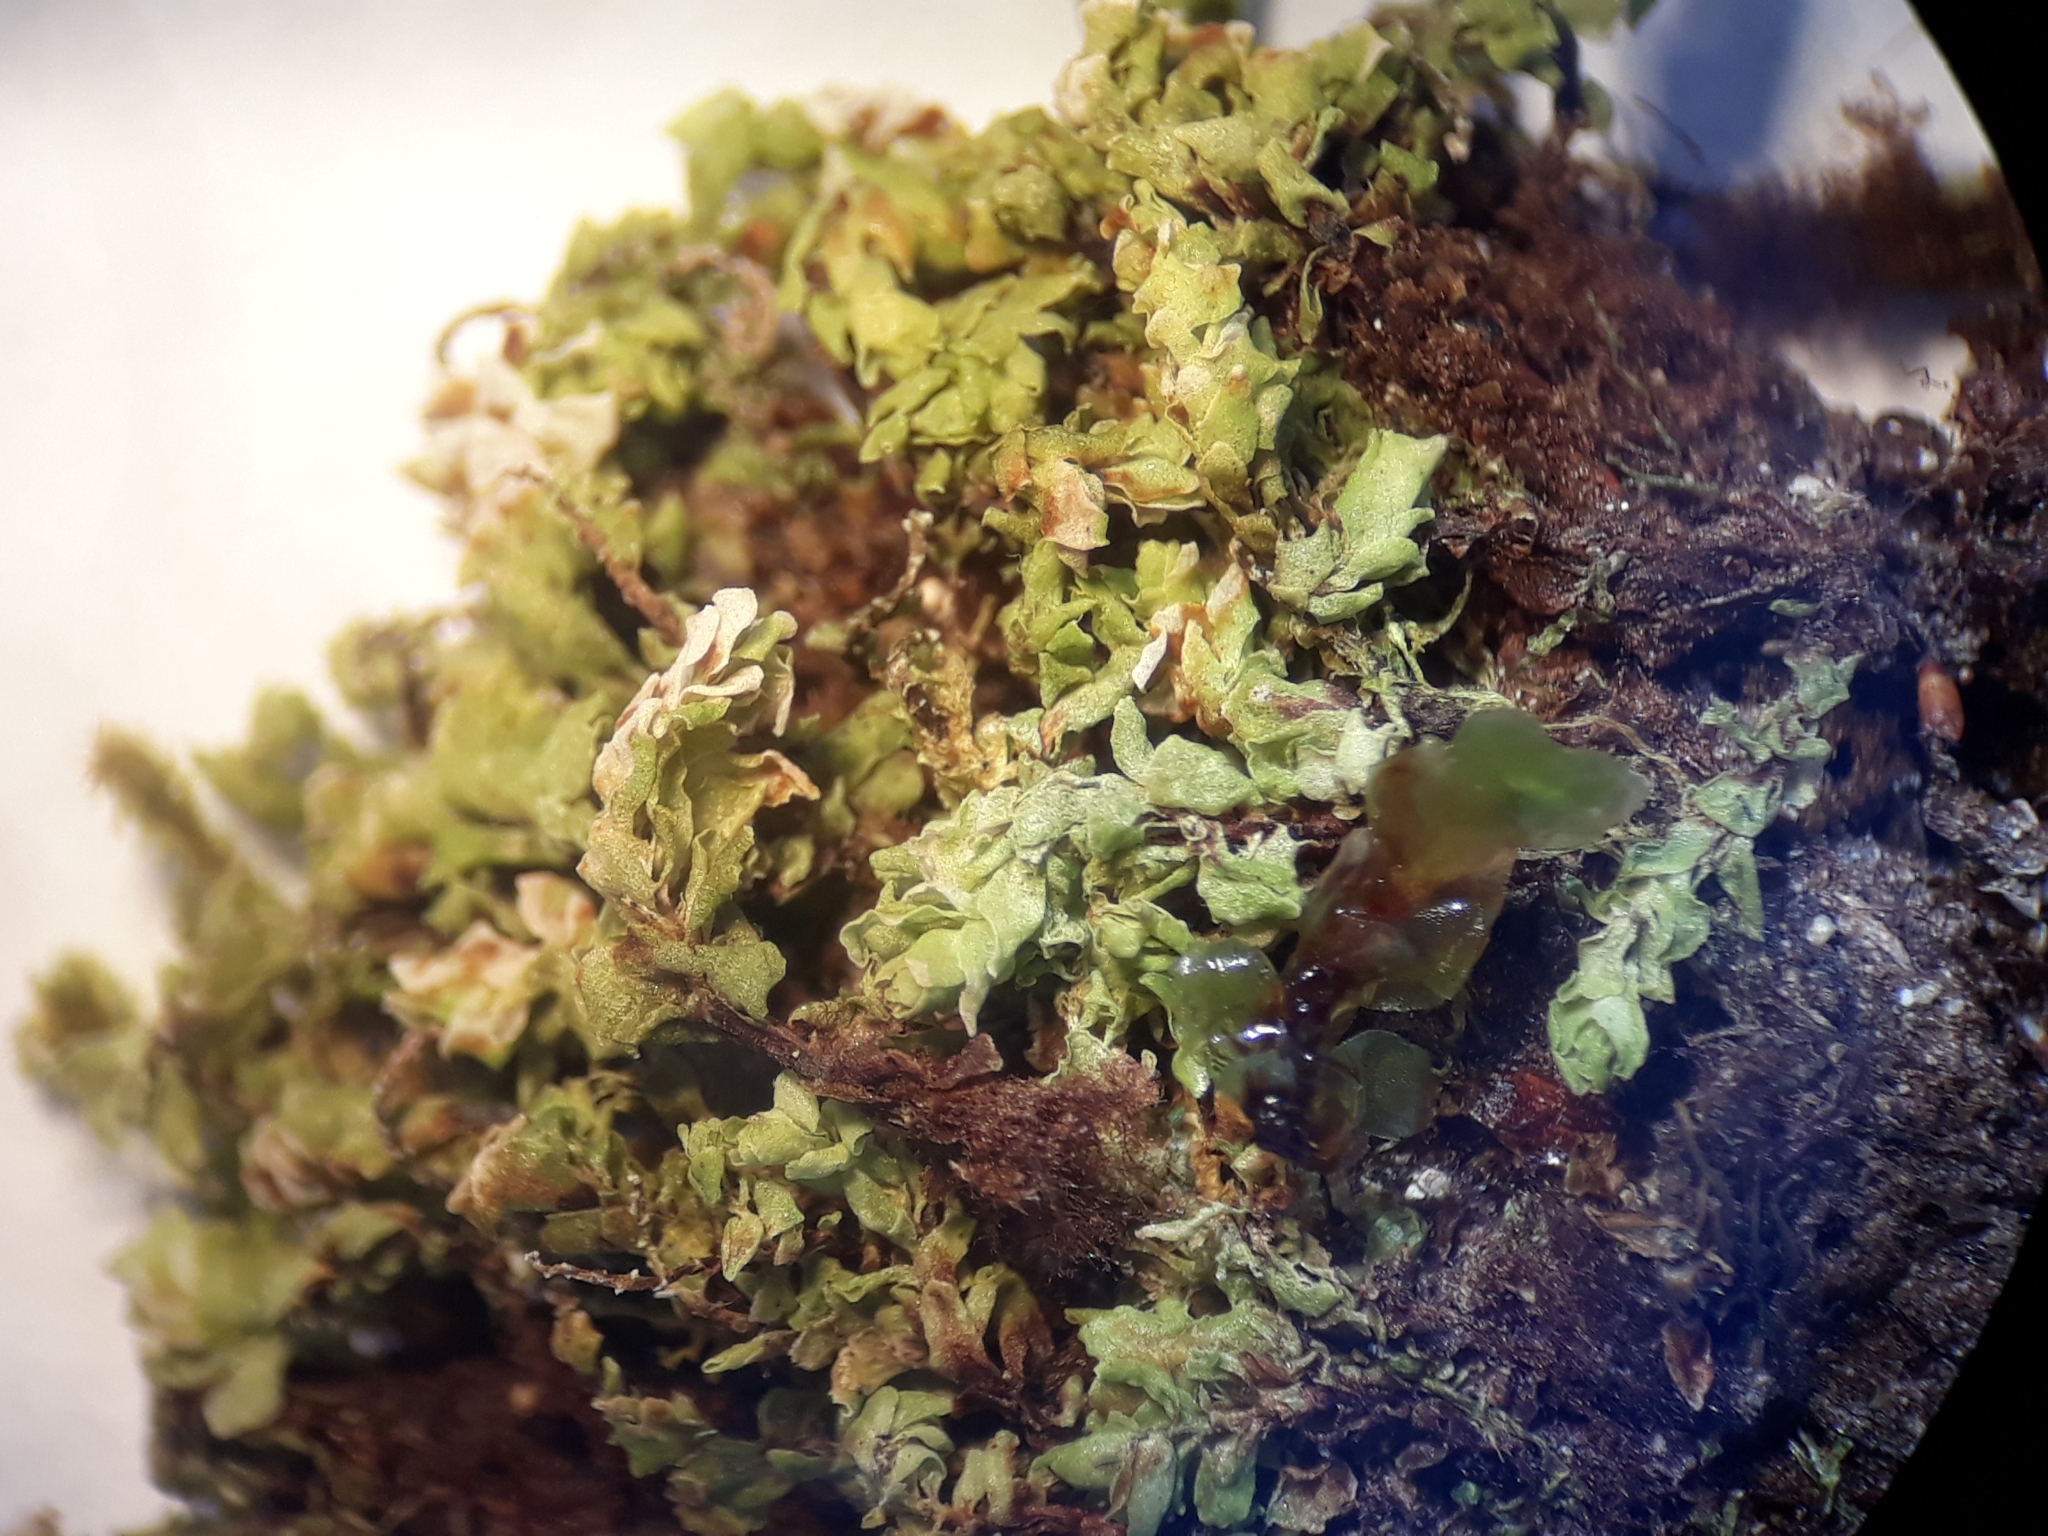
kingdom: Plantae
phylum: Bryophyta
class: Bryopsida
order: Hookeriales
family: Daltoniaceae
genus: Achrophyllum
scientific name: Achrophyllum dentatum
